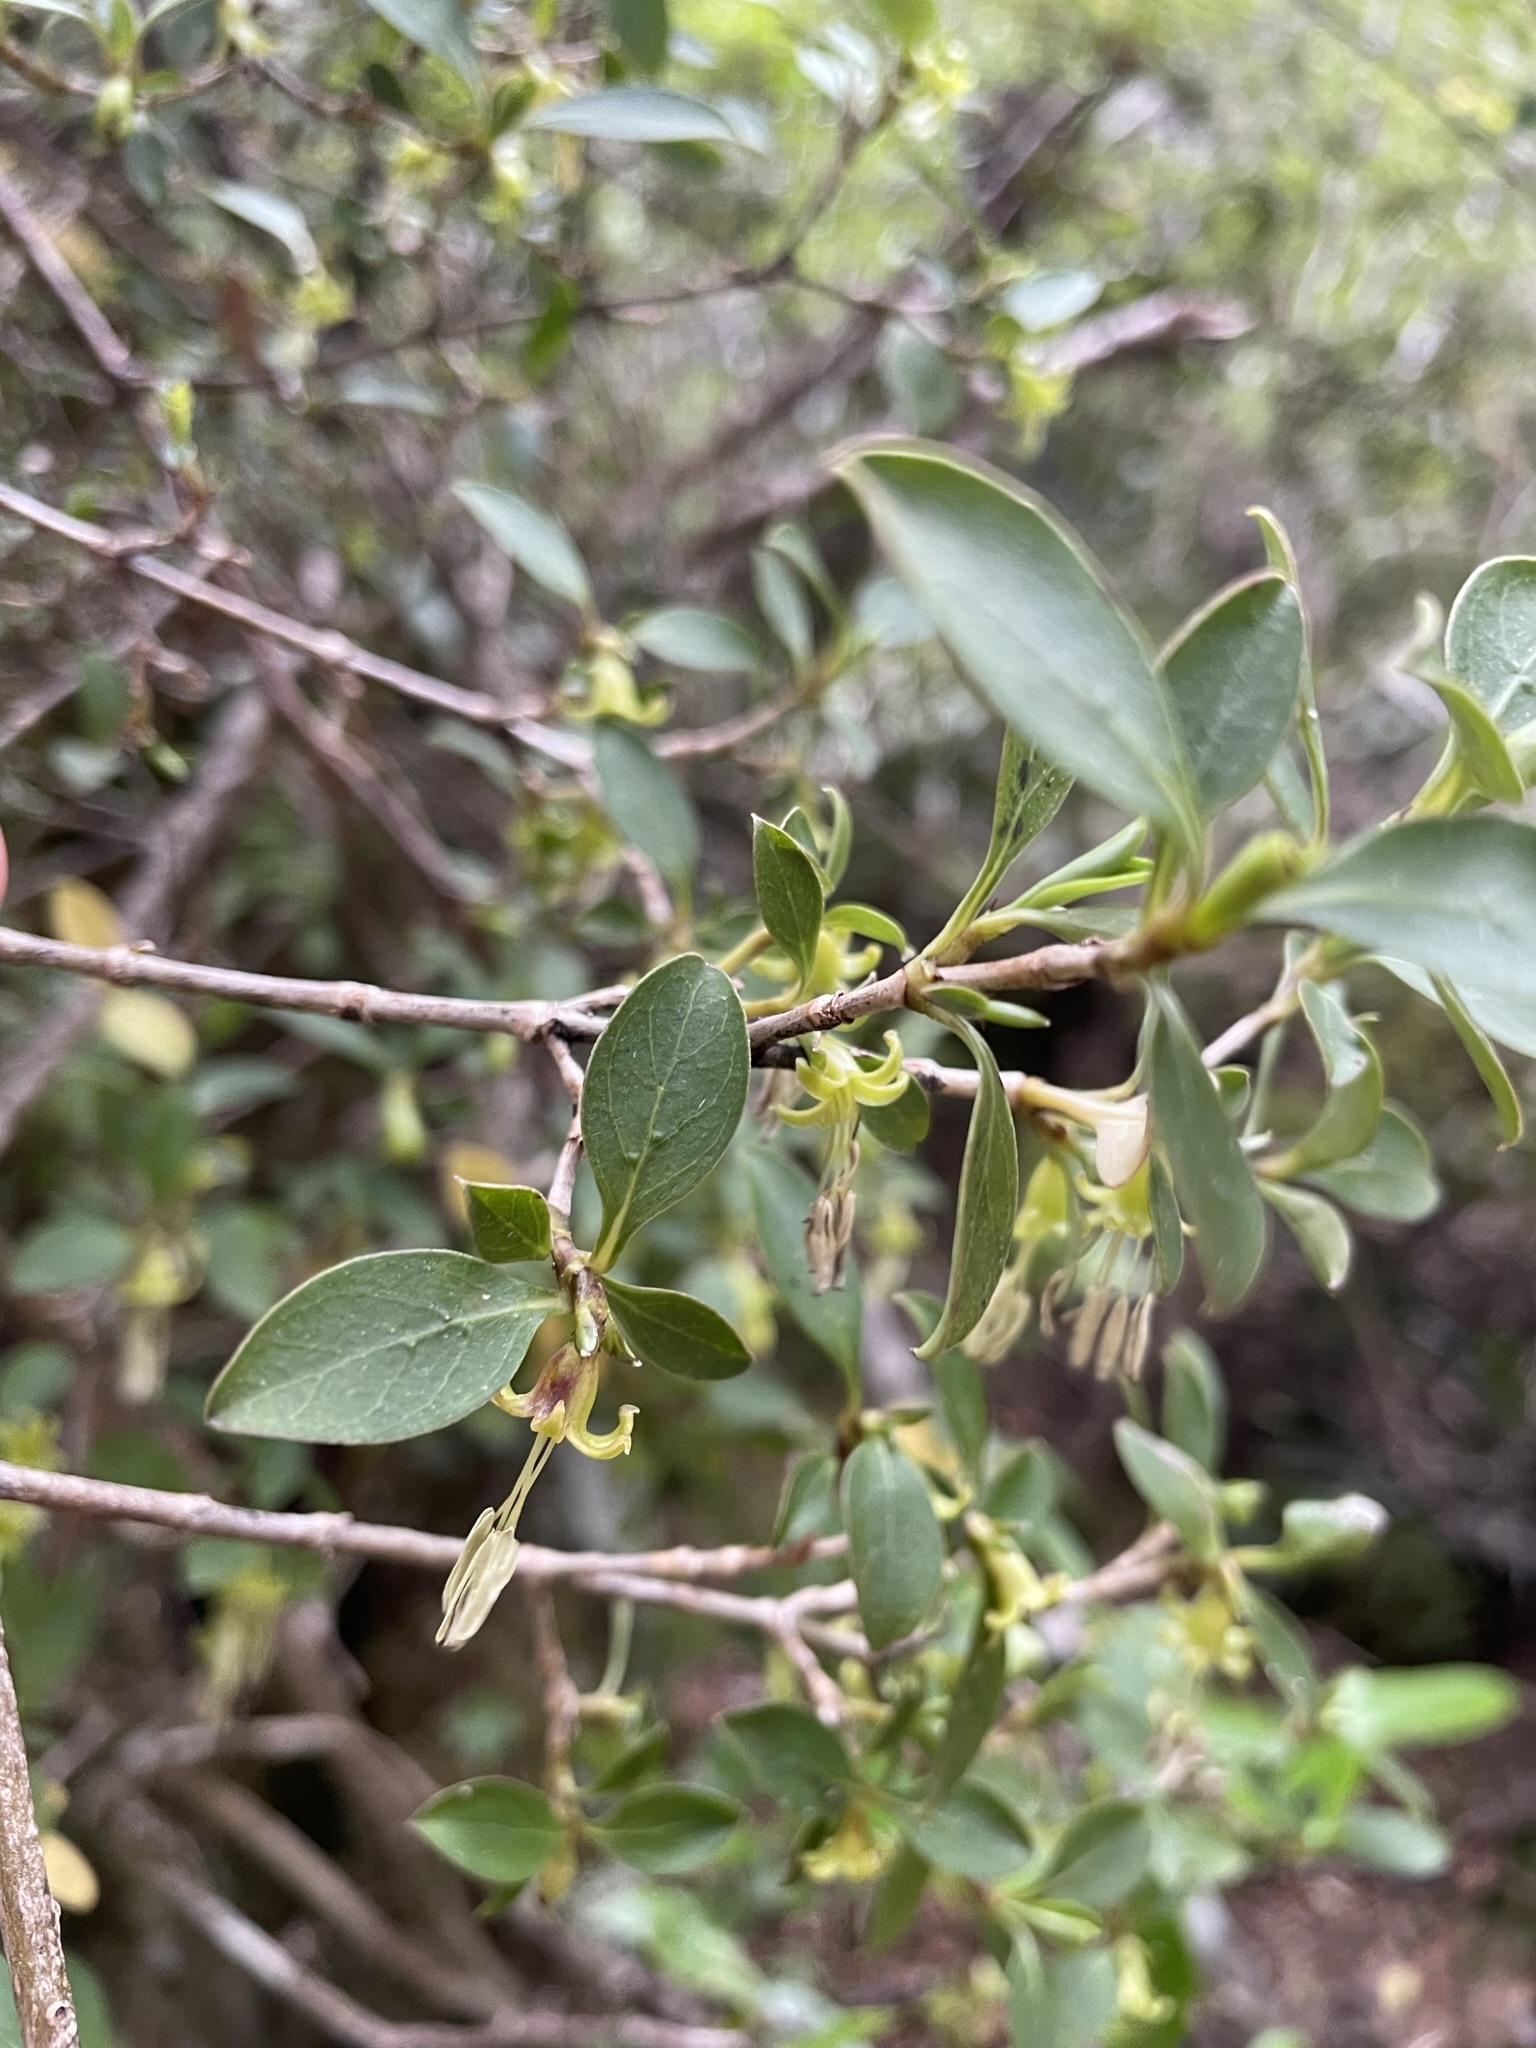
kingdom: Plantae
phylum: Tracheophyta
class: Magnoliopsida
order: Gentianales
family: Rubiaceae
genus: Coprosma
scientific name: Coprosma foetidissima
